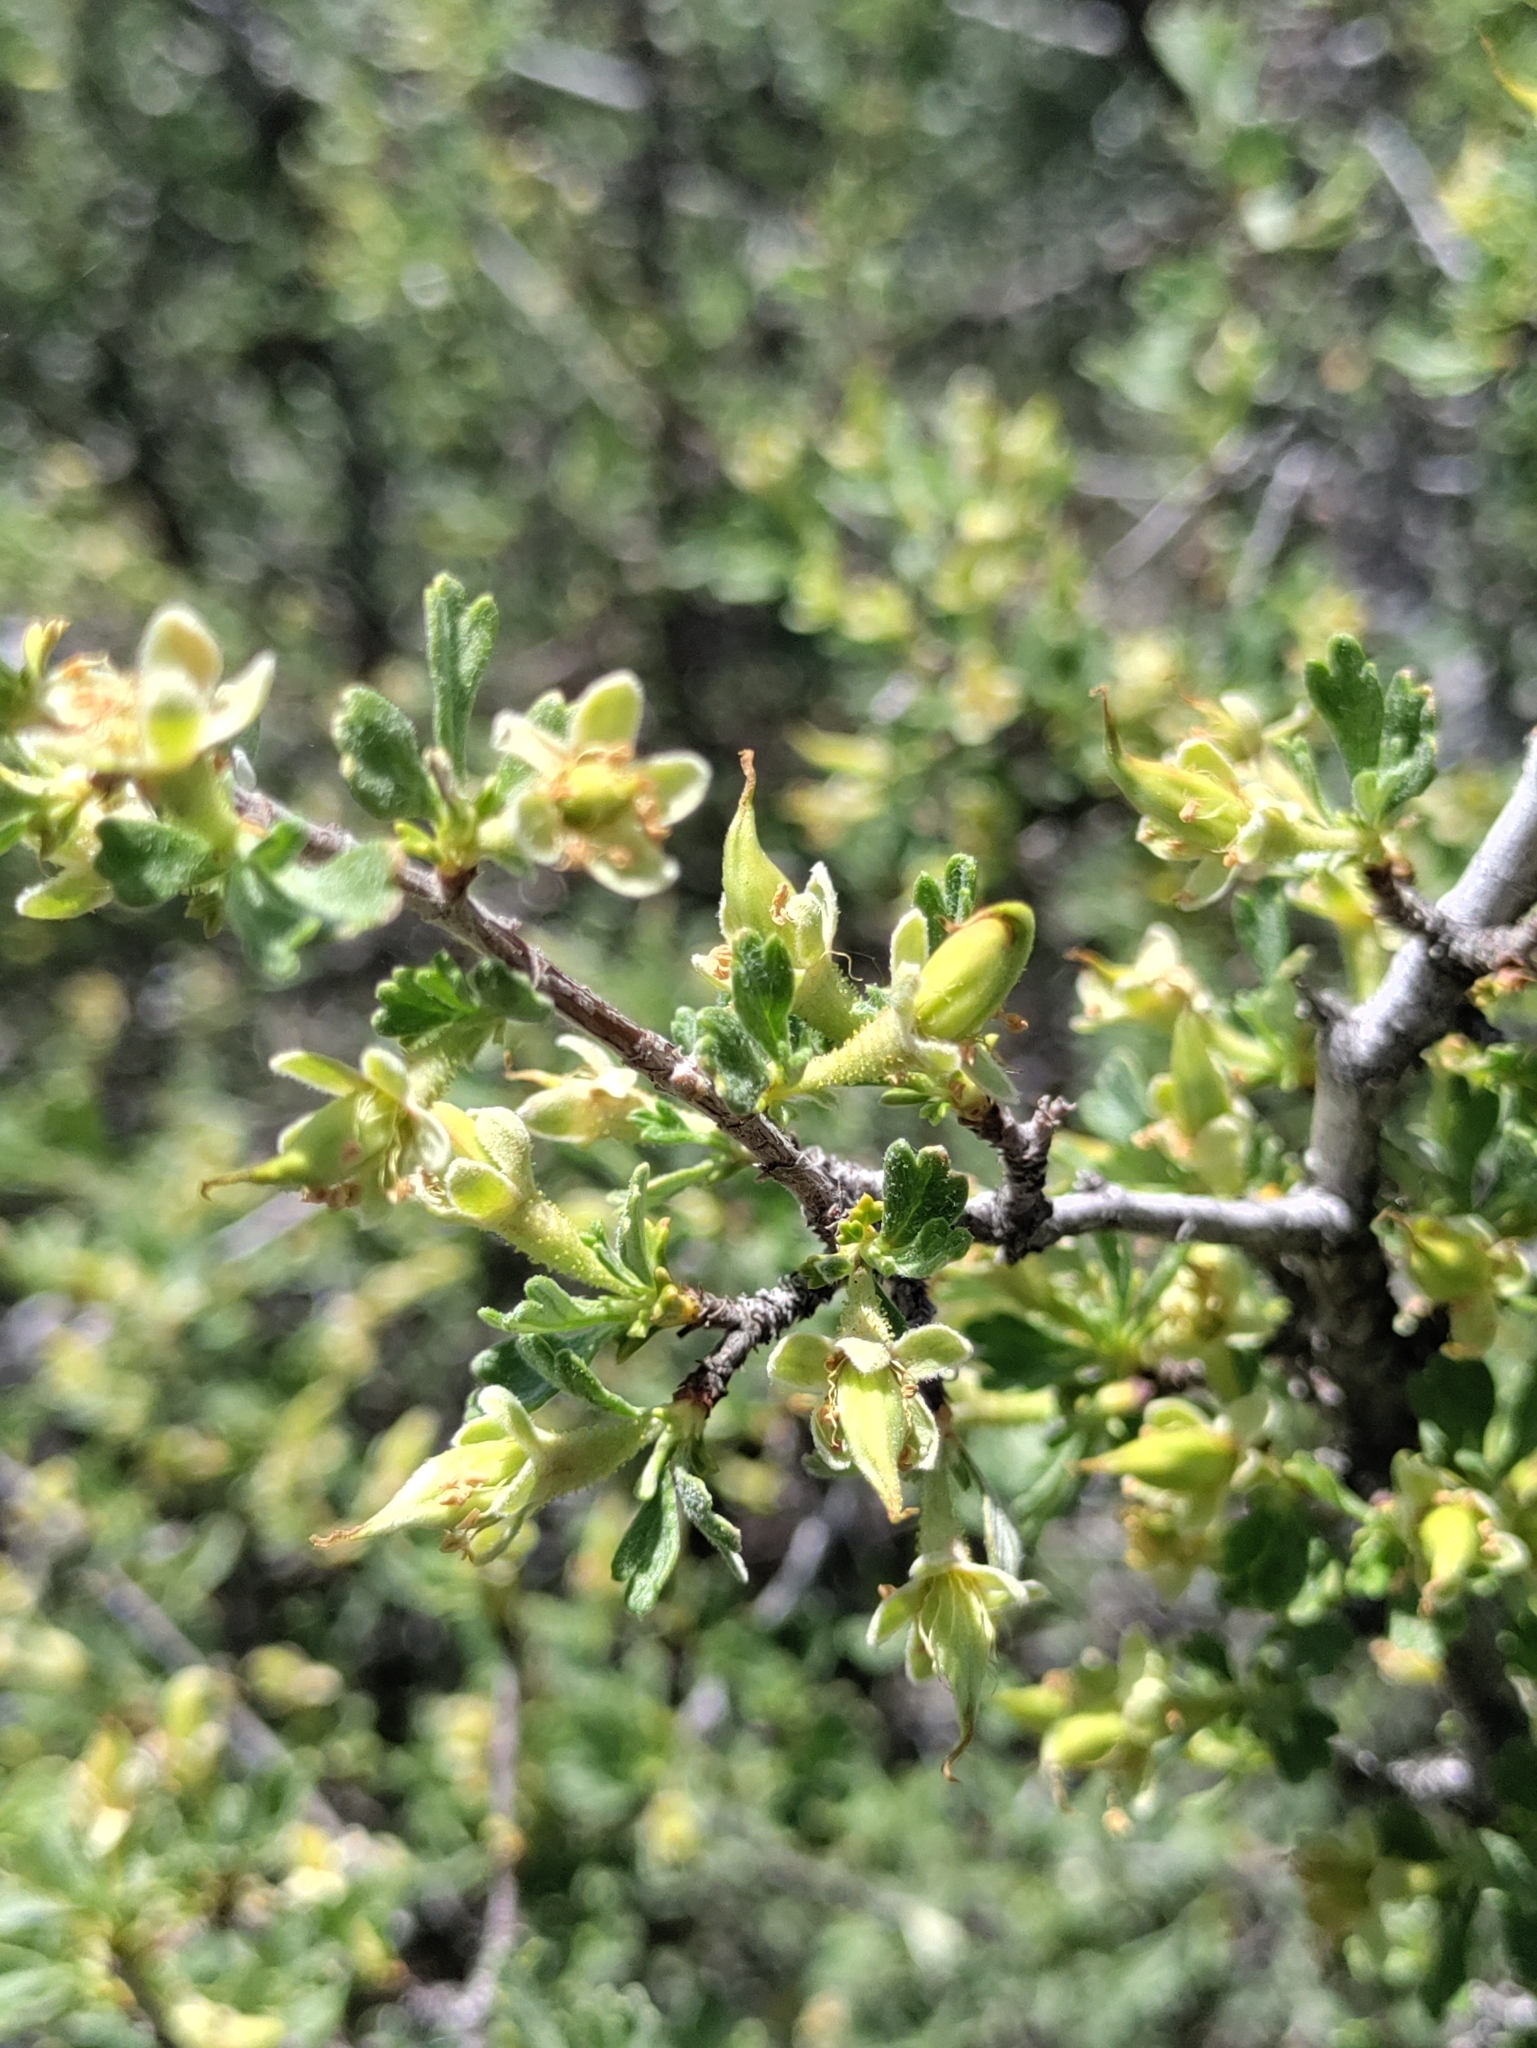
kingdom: Plantae
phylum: Tracheophyta
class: Magnoliopsida
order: Rosales
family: Rosaceae
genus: Purshia
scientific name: Purshia tridentata
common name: Antelope bitterbrush
